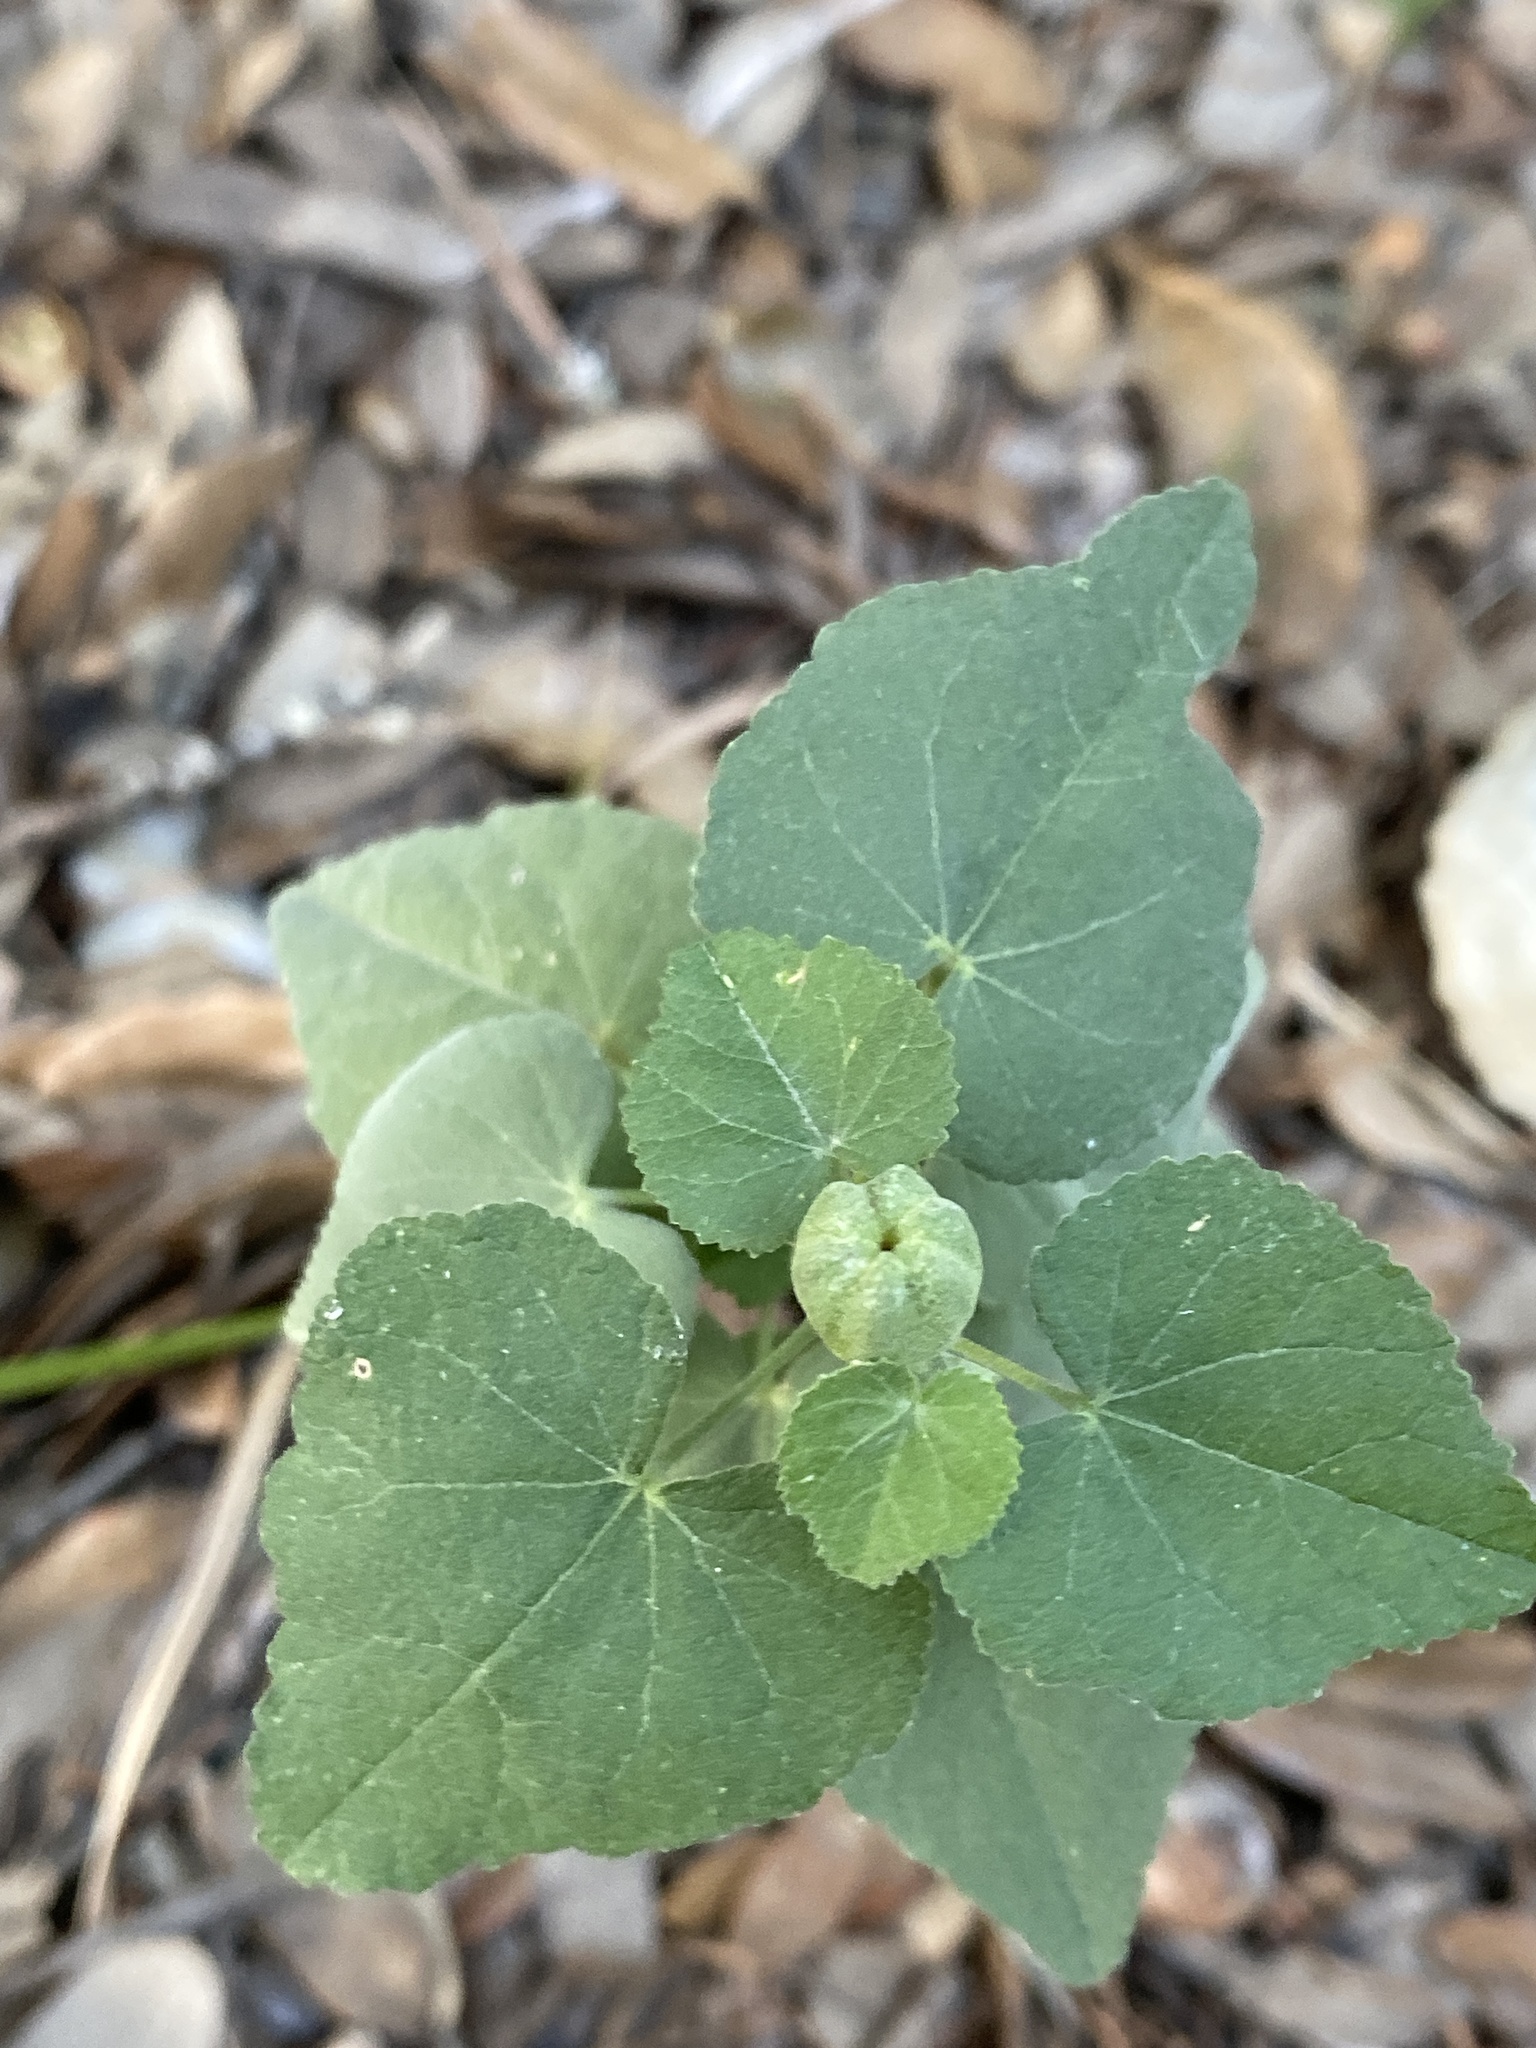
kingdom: Plantae
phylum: Tracheophyta
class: Magnoliopsida
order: Malvales
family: Malvaceae
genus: Abutilon
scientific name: Abutilon fruticosum
